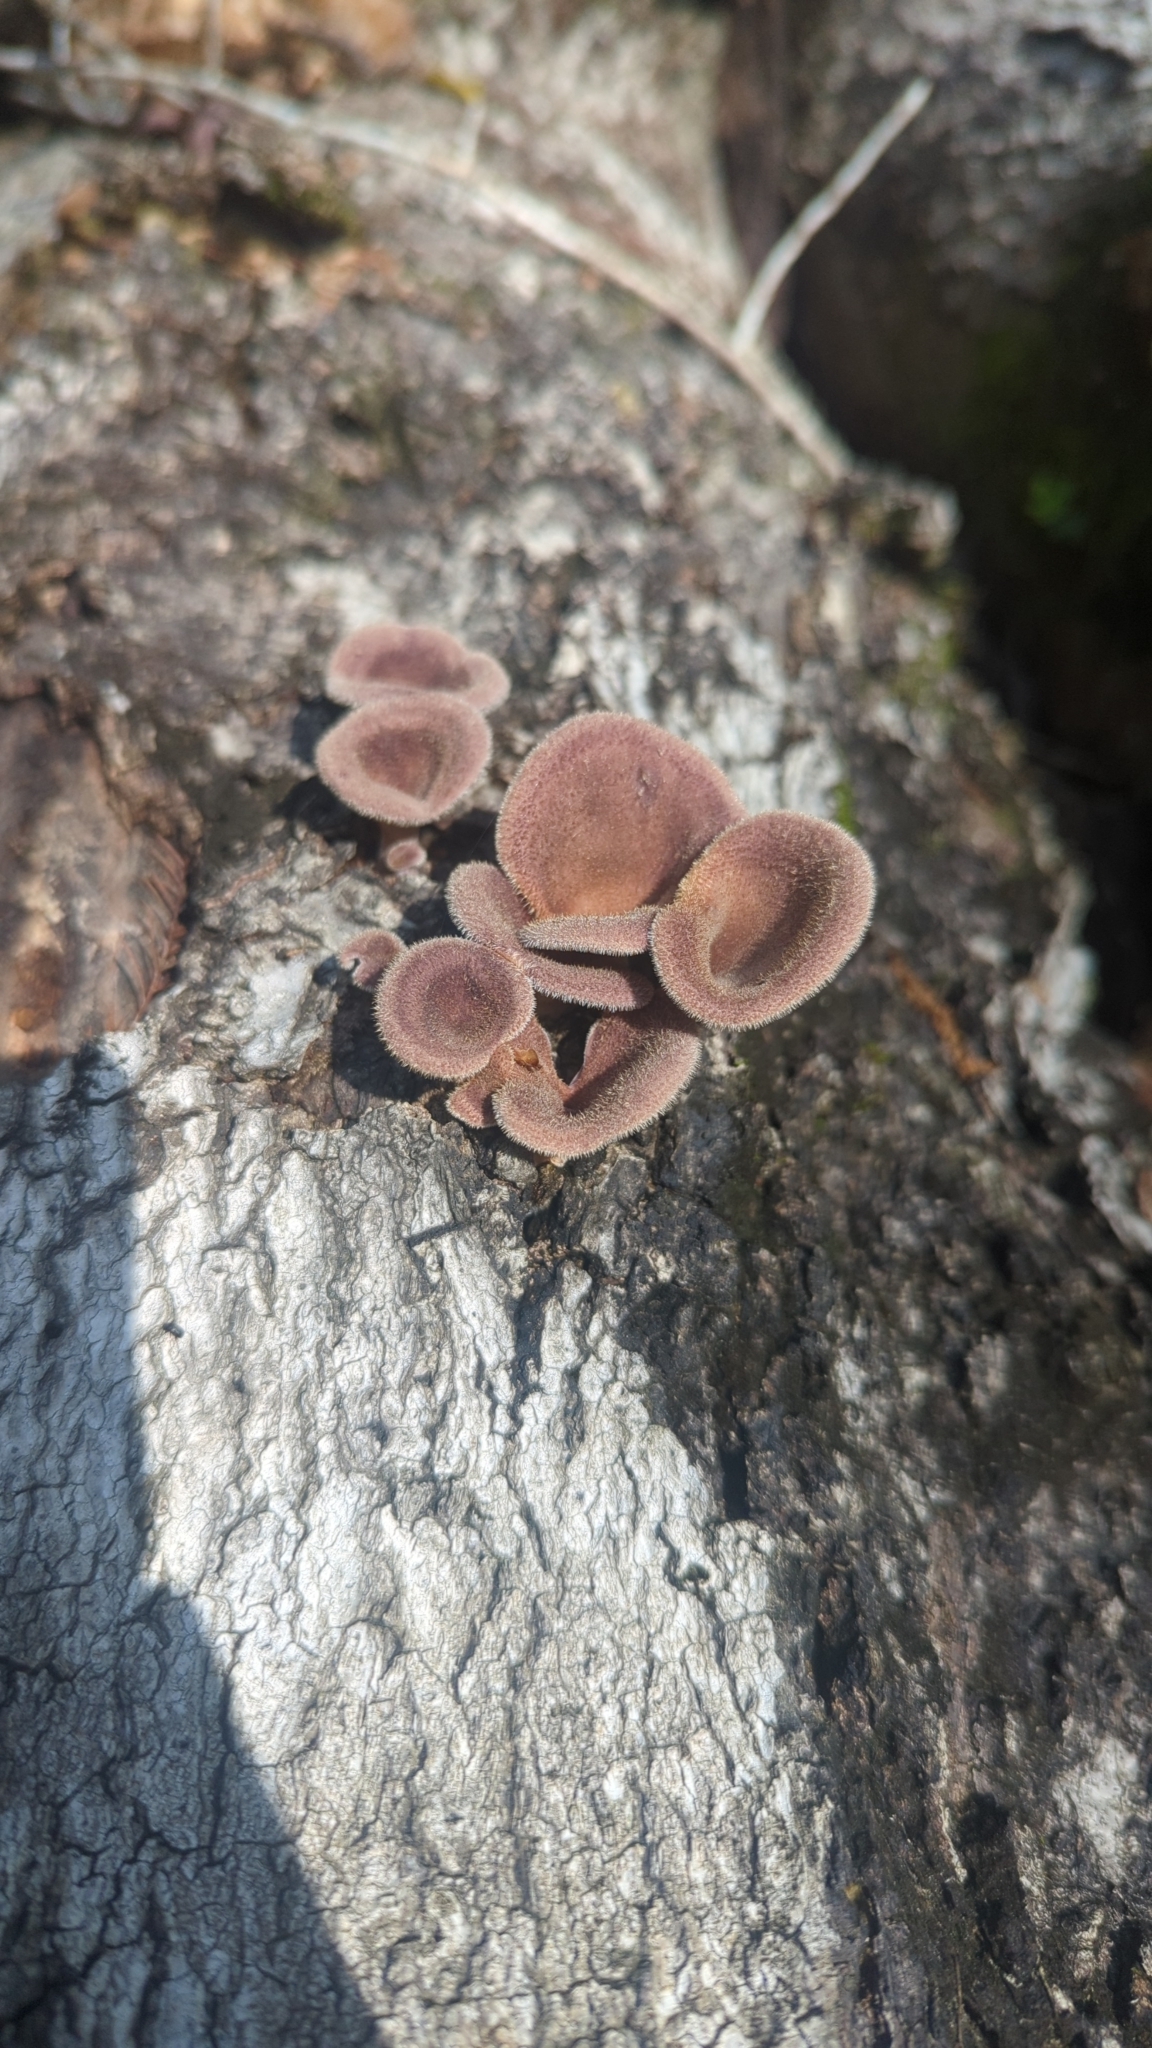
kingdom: Fungi
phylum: Basidiomycota
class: Agaricomycetes
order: Polyporales
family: Panaceae
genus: Panus
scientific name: Panus neostrigosus
